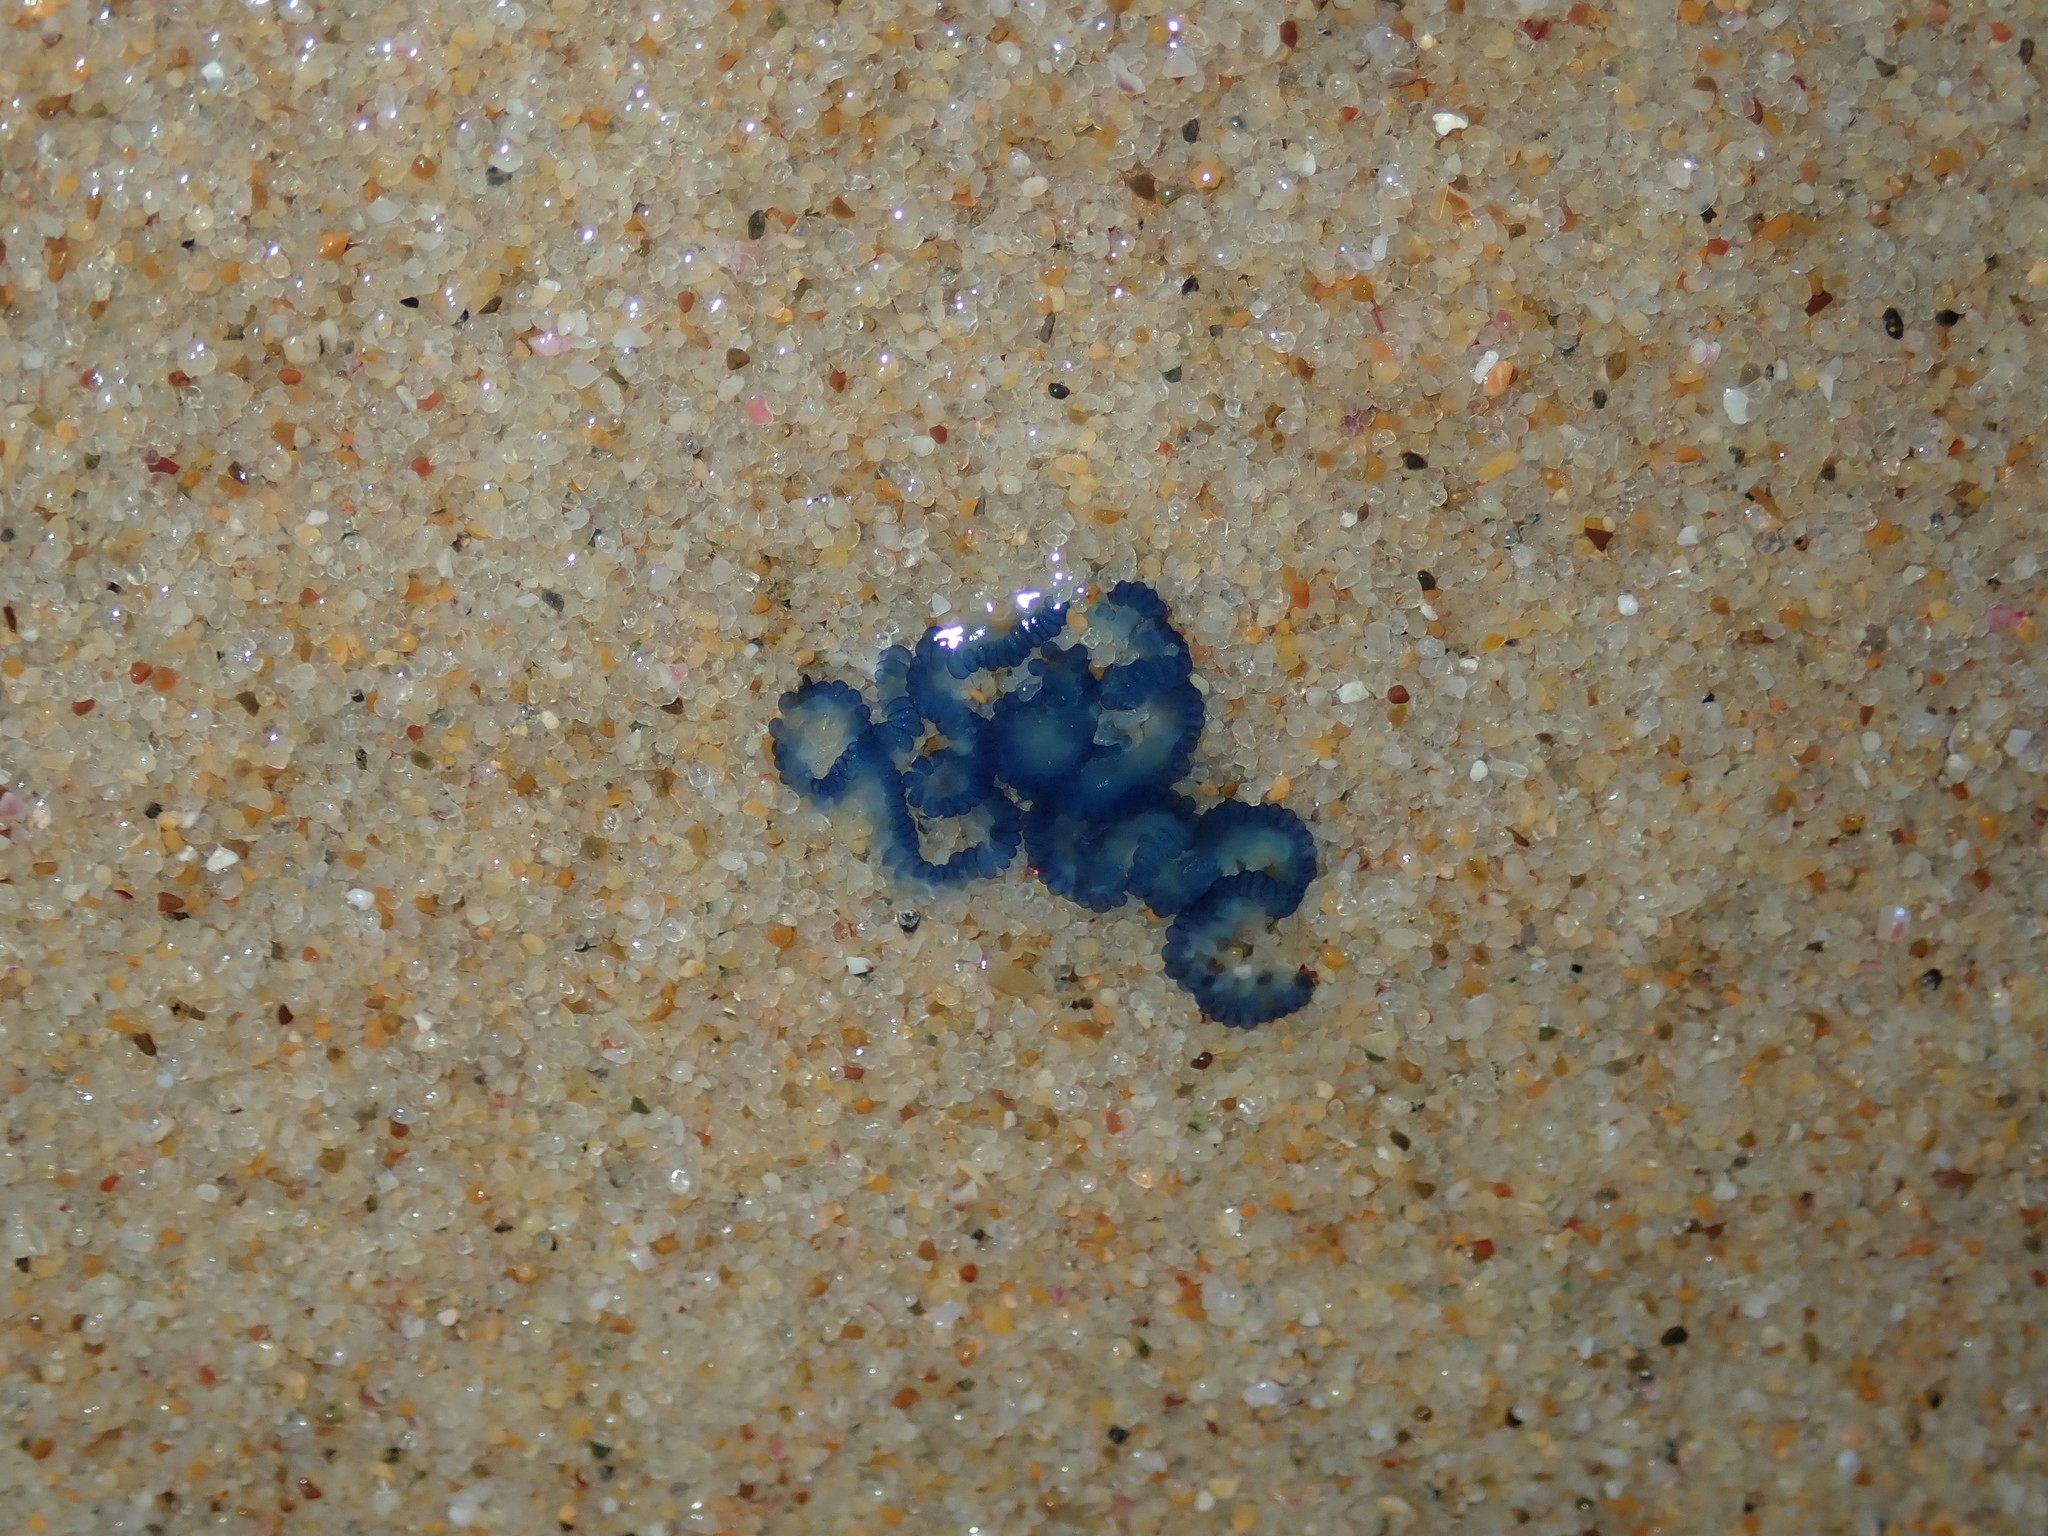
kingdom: Animalia
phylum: Cnidaria
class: Hydrozoa
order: Siphonophorae
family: Physaliidae
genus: Physalia
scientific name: Physalia physalis
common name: Portuguese man-of-war
